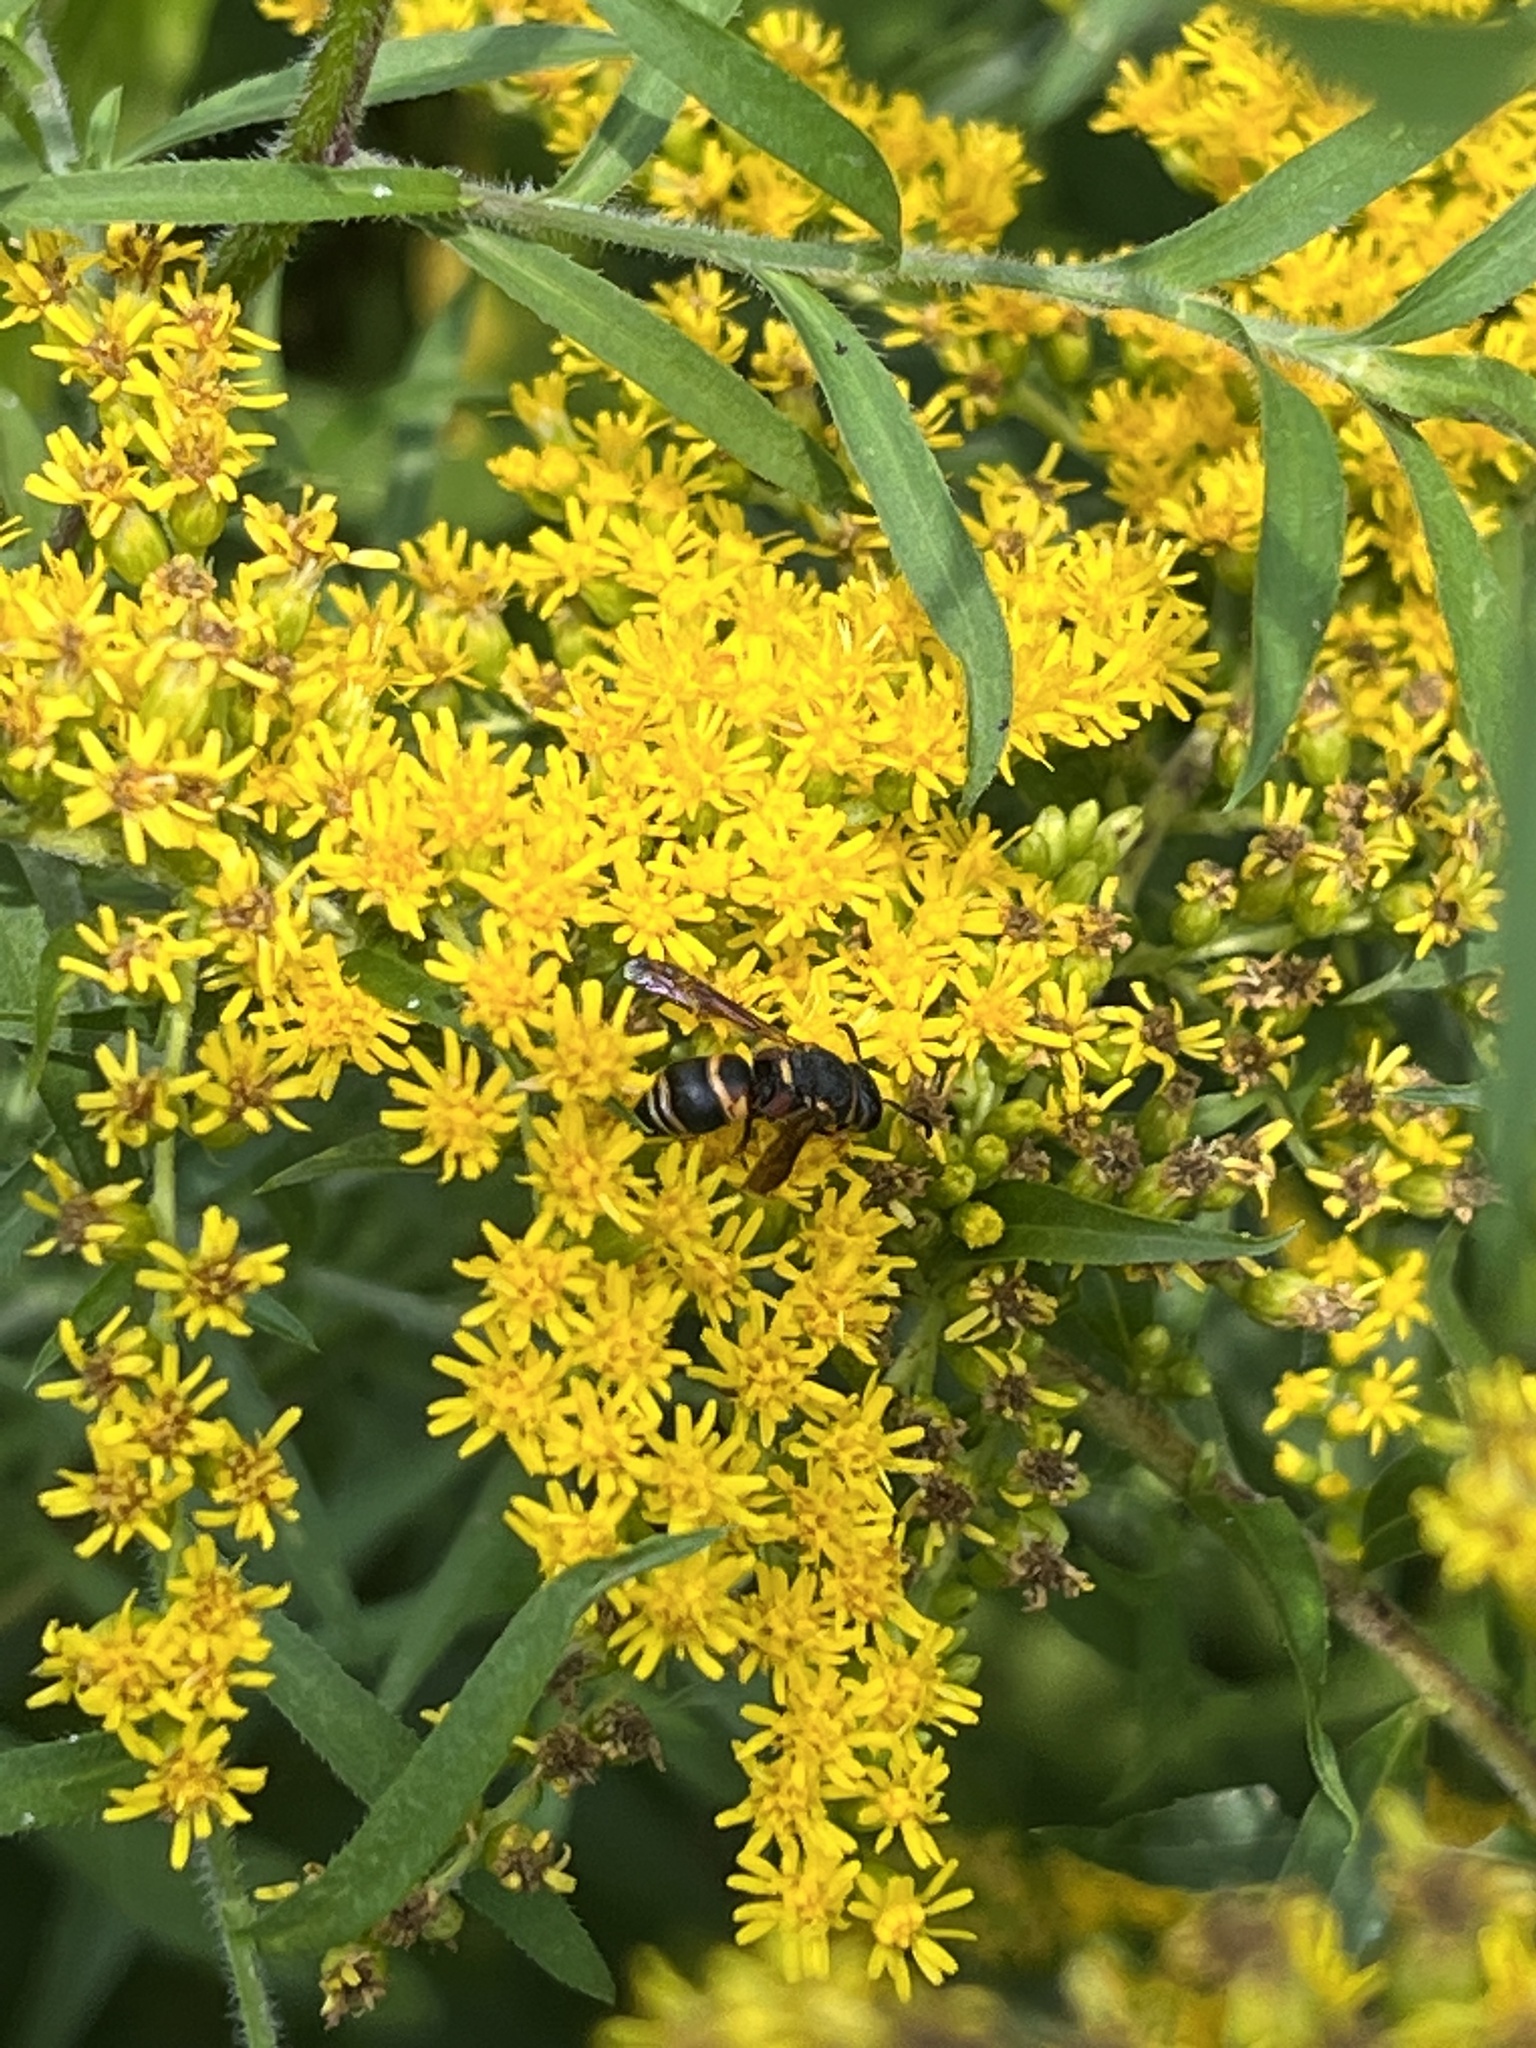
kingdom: Animalia
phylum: Arthropoda
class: Insecta
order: Hymenoptera
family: Eumenidae
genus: Euodynerus
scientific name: Euodynerus hidalgo
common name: Wasp
